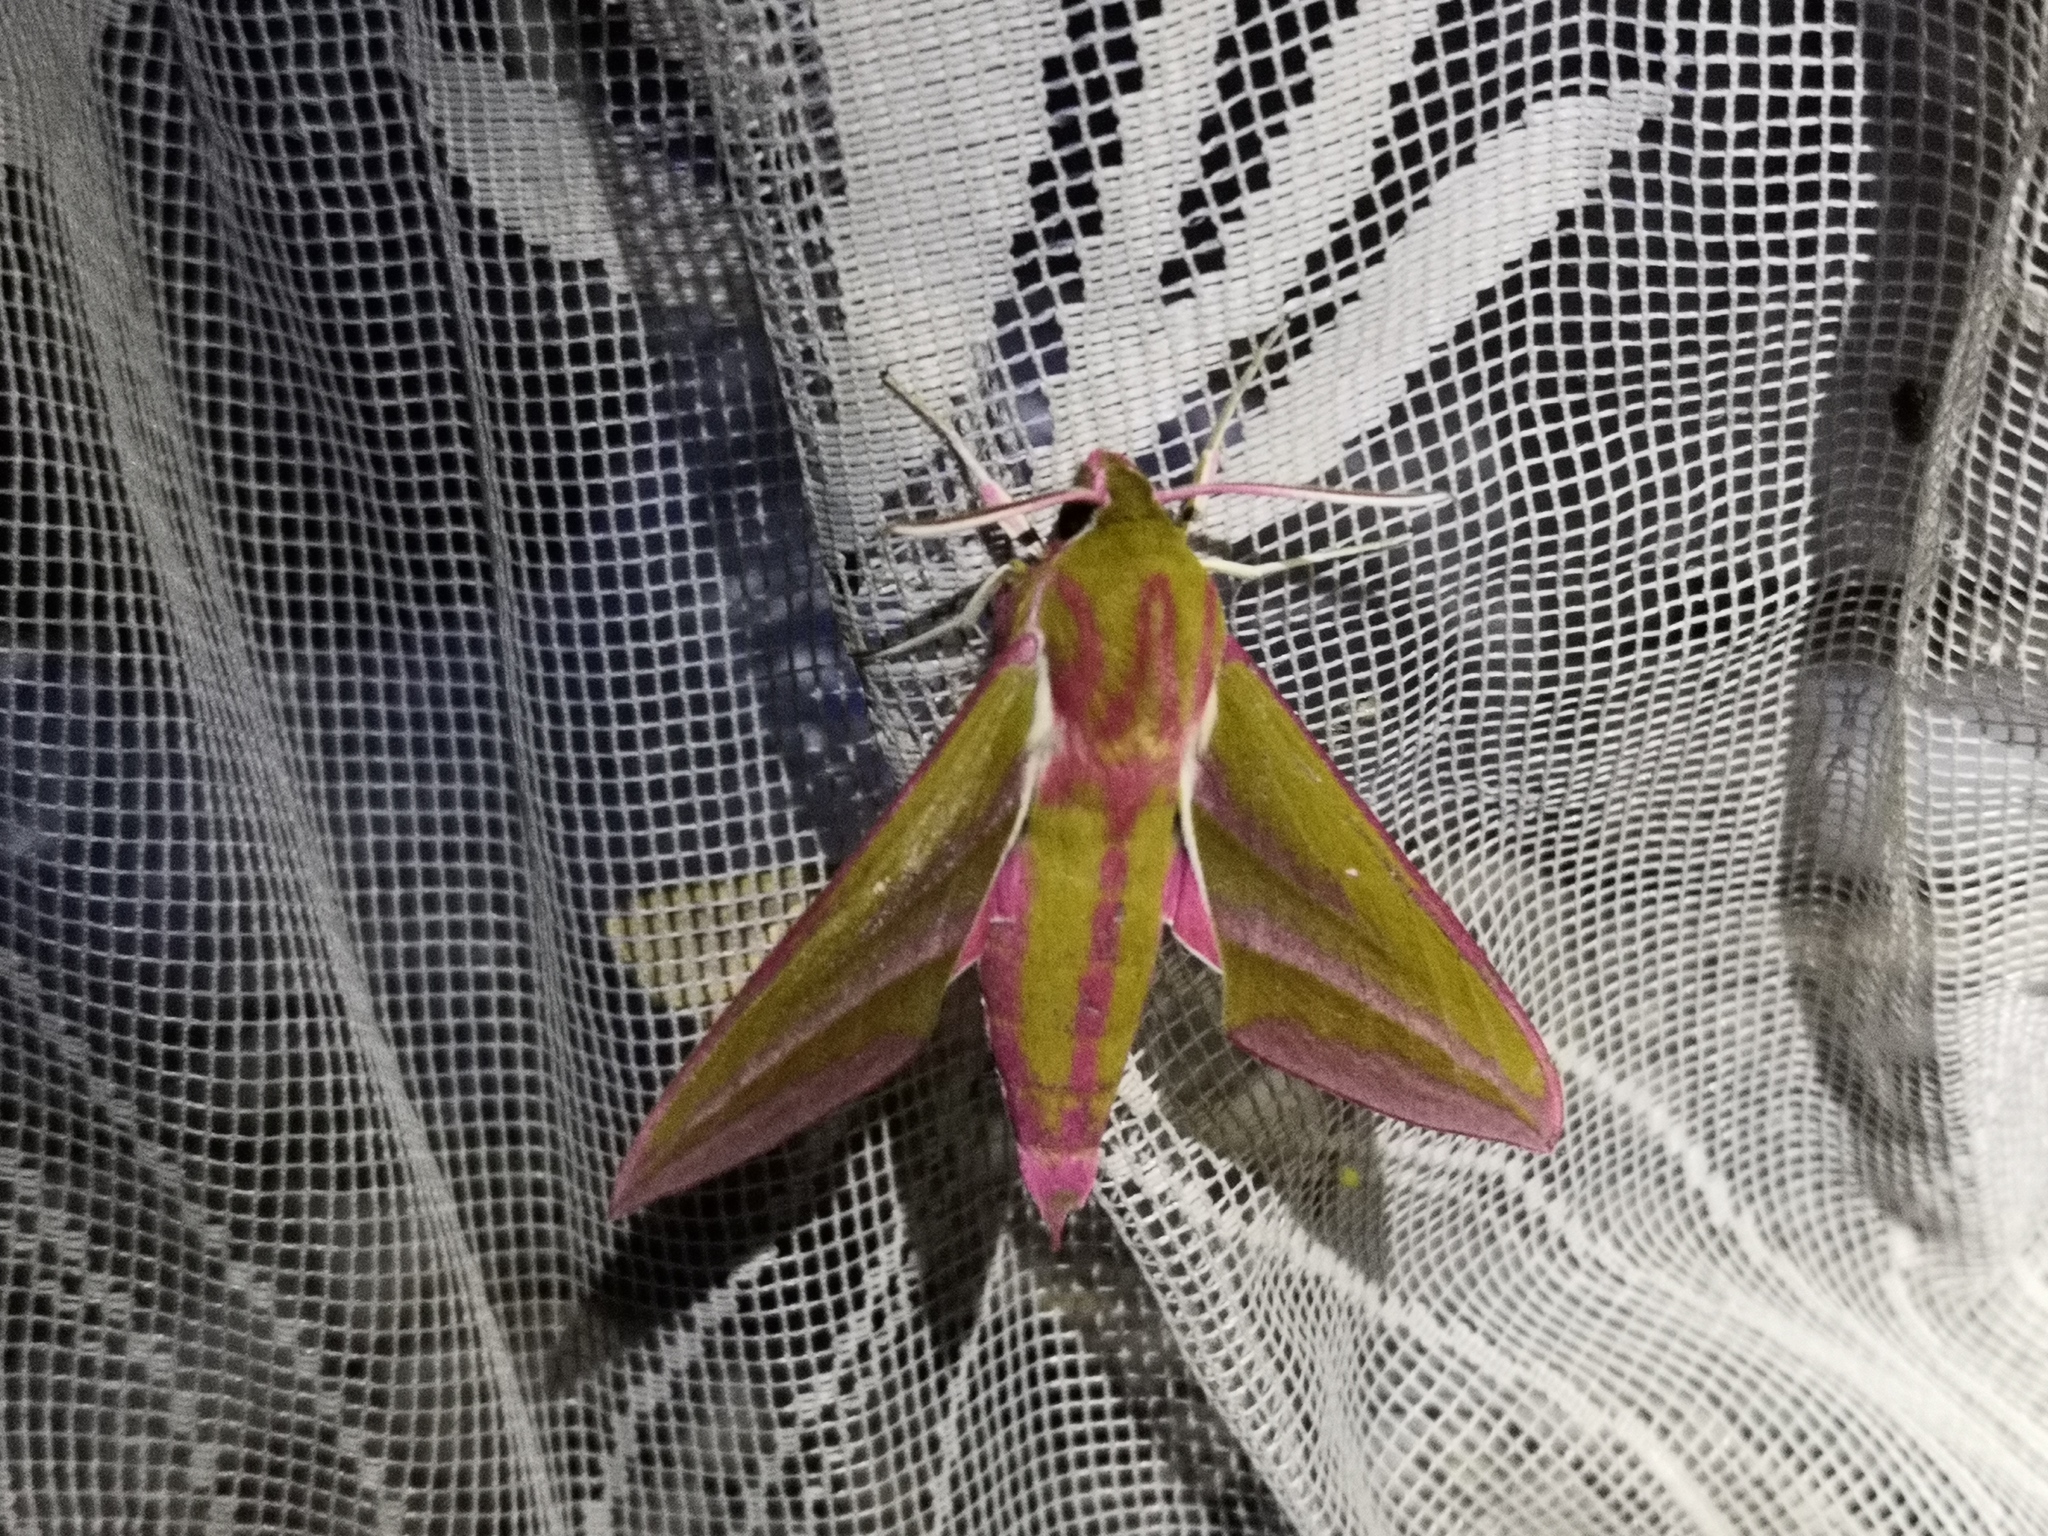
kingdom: Animalia
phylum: Arthropoda
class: Insecta
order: Lepidoptera
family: Sphingidae
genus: Deilephila
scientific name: Deilephila elpenor
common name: Elephant hawk-moth
